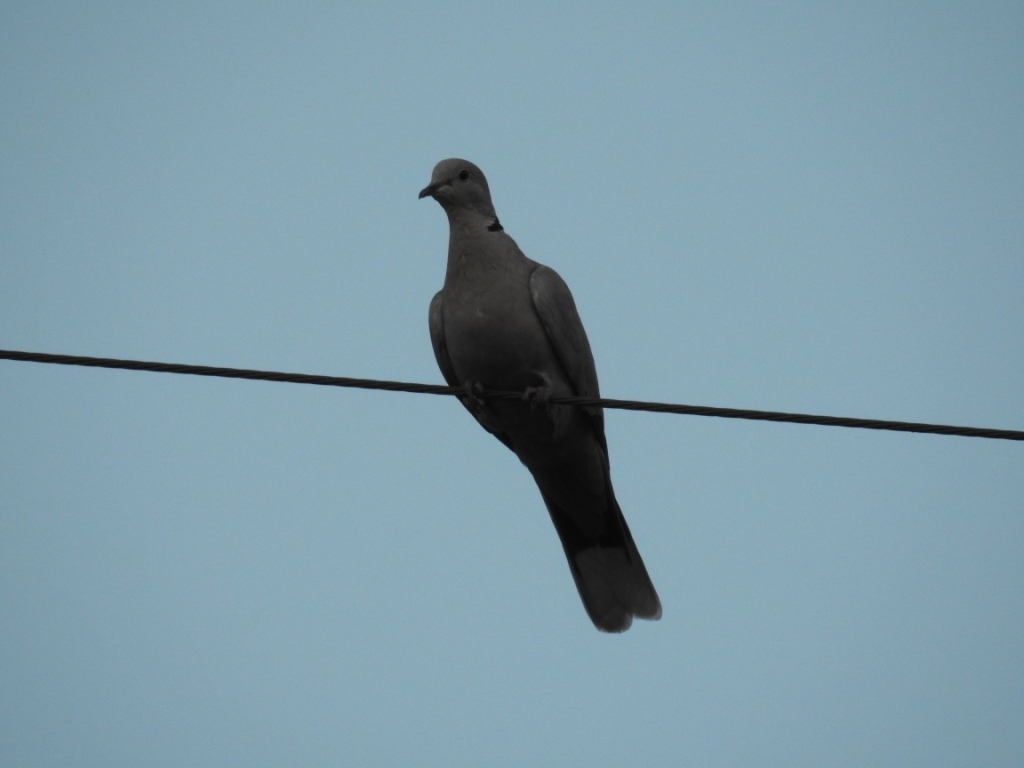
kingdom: Animalia
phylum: Chordata
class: Aves
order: Columbiformes
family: Columbidae
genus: Streptopelia
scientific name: Streptopelia decaocto
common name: Eurasian collared dove
